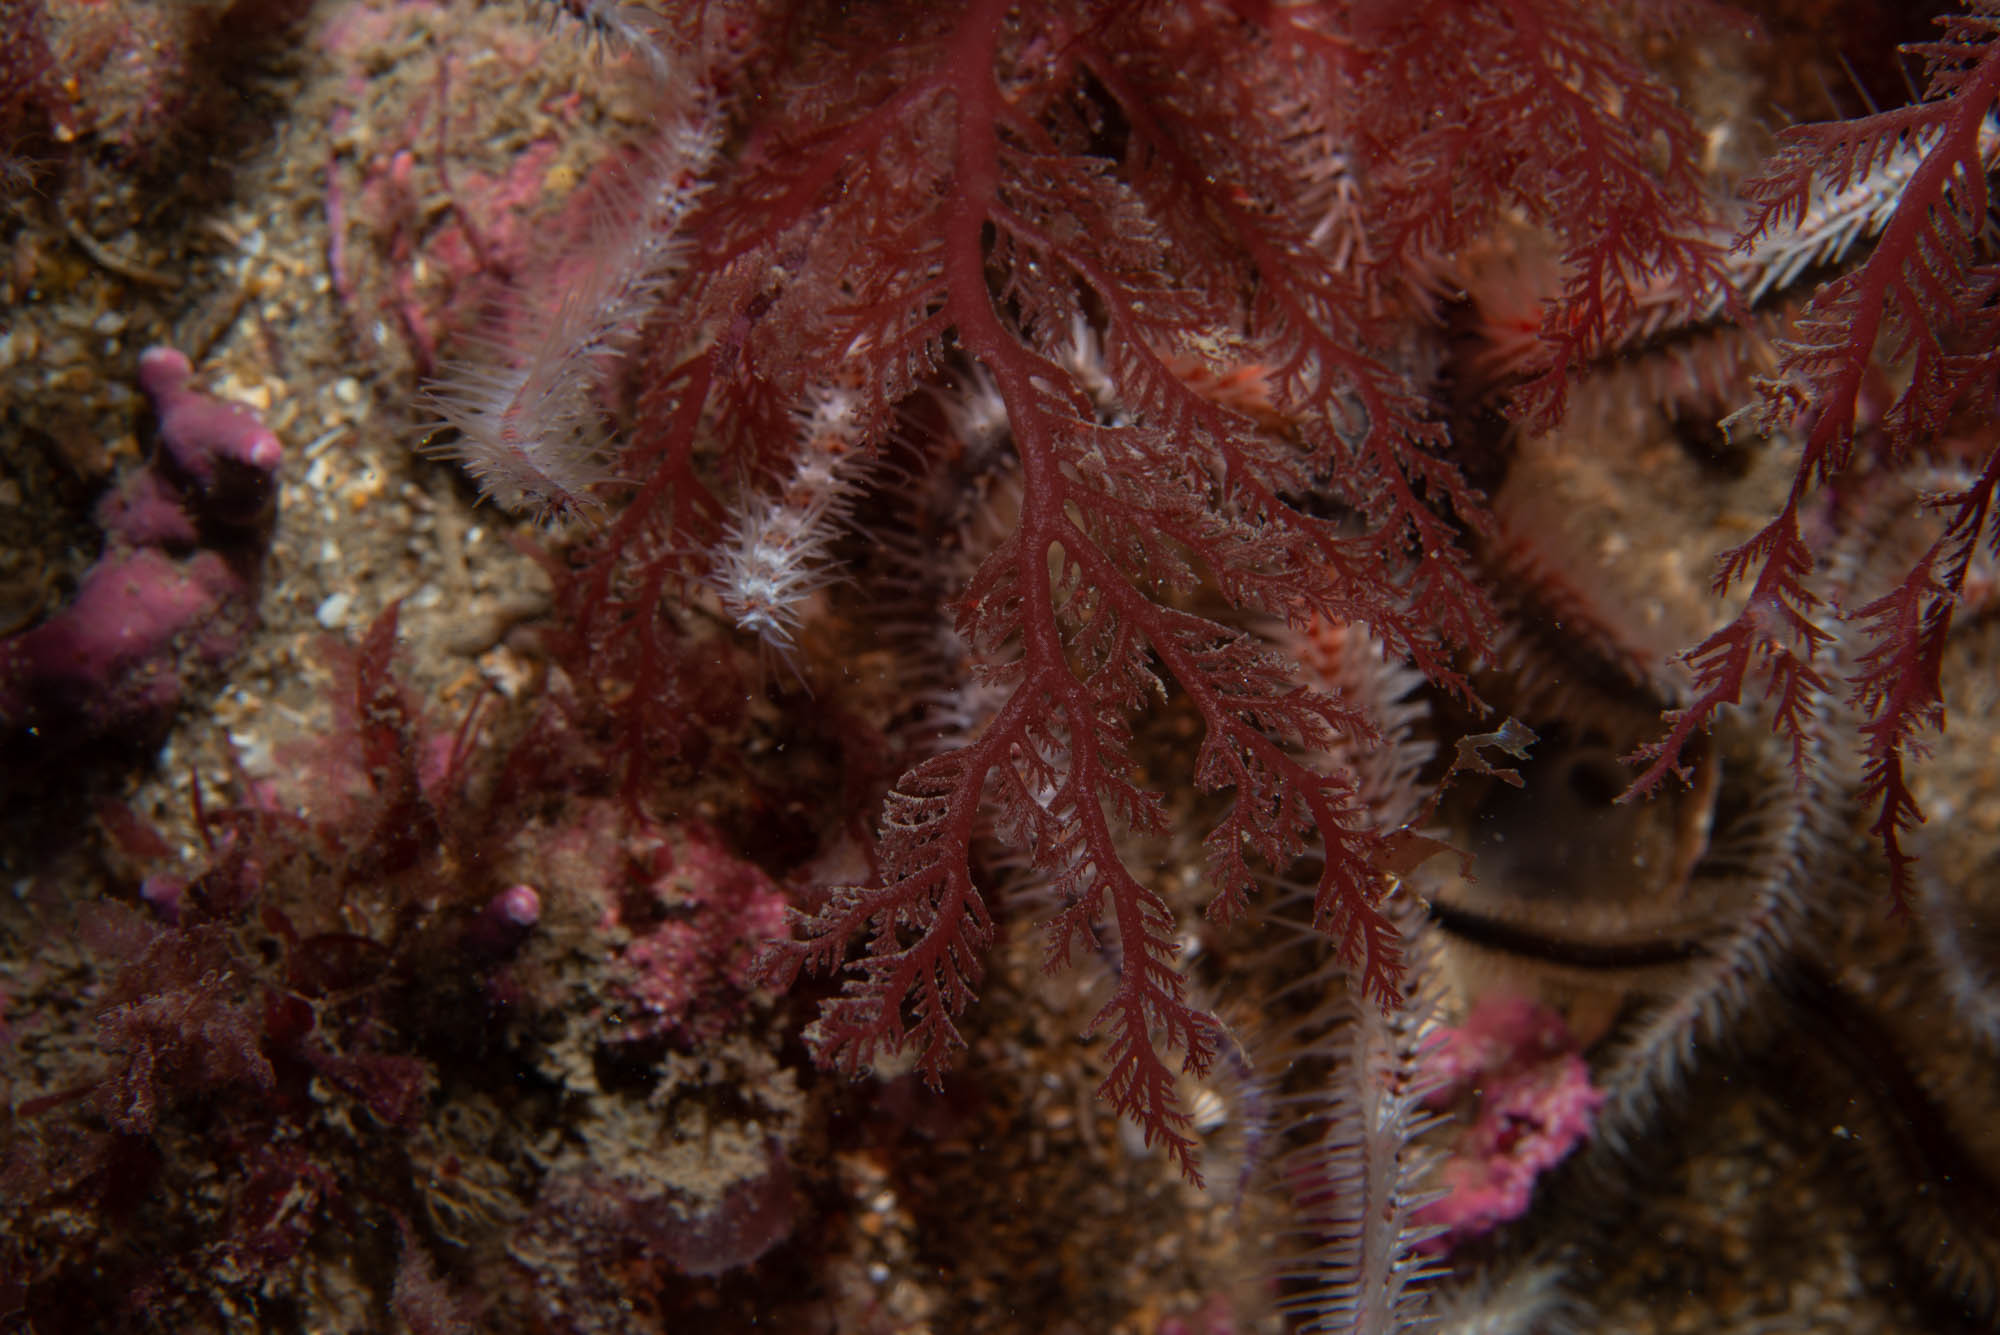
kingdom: Plantae
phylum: Rhodophyta
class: Florideophyceae
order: Plocamiales
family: Plocamiaceae
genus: Plocamium
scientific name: Plocamium cartilagineum
